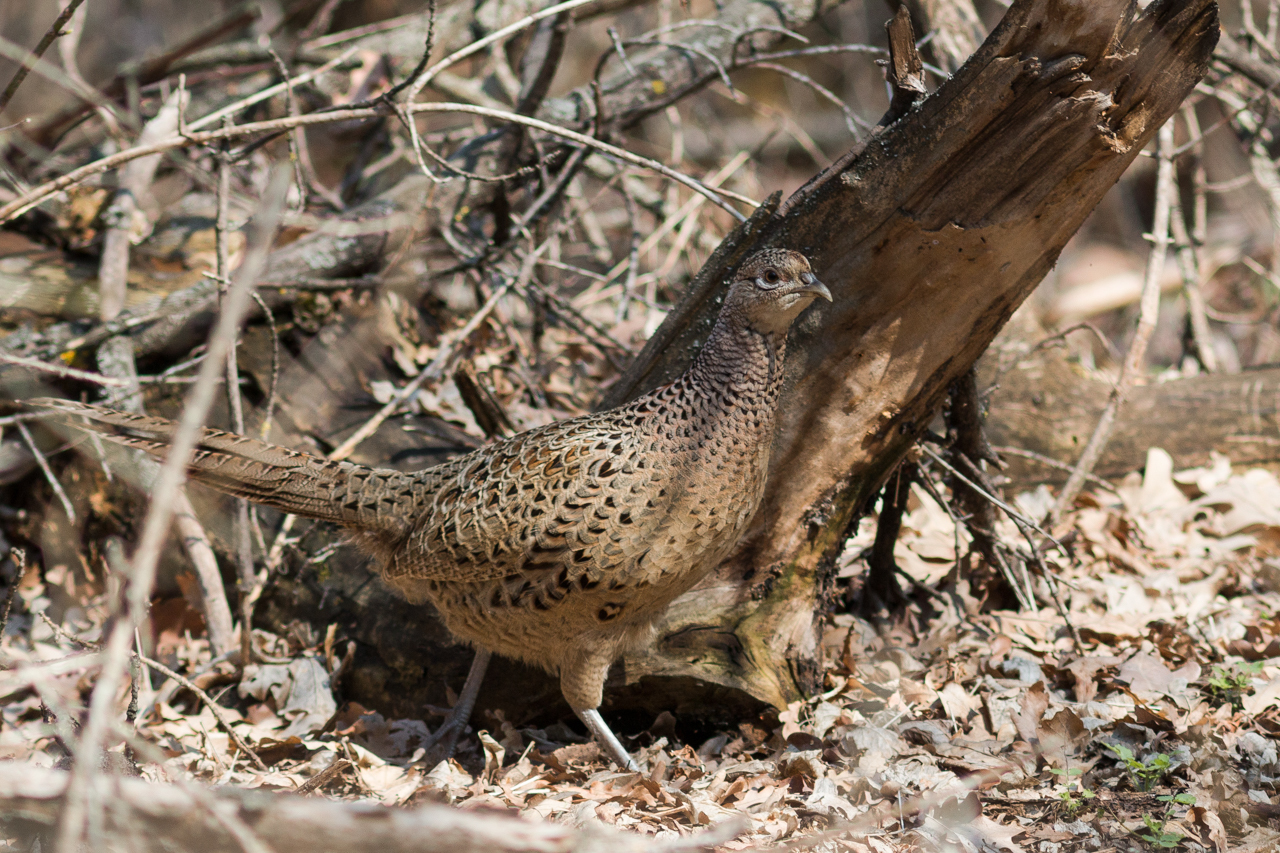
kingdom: Animalia
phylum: Chordata
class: Aves
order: Galliformes
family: Phasianidae
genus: Phasianus
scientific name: Phasianus colchicus
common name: Common pheasant
